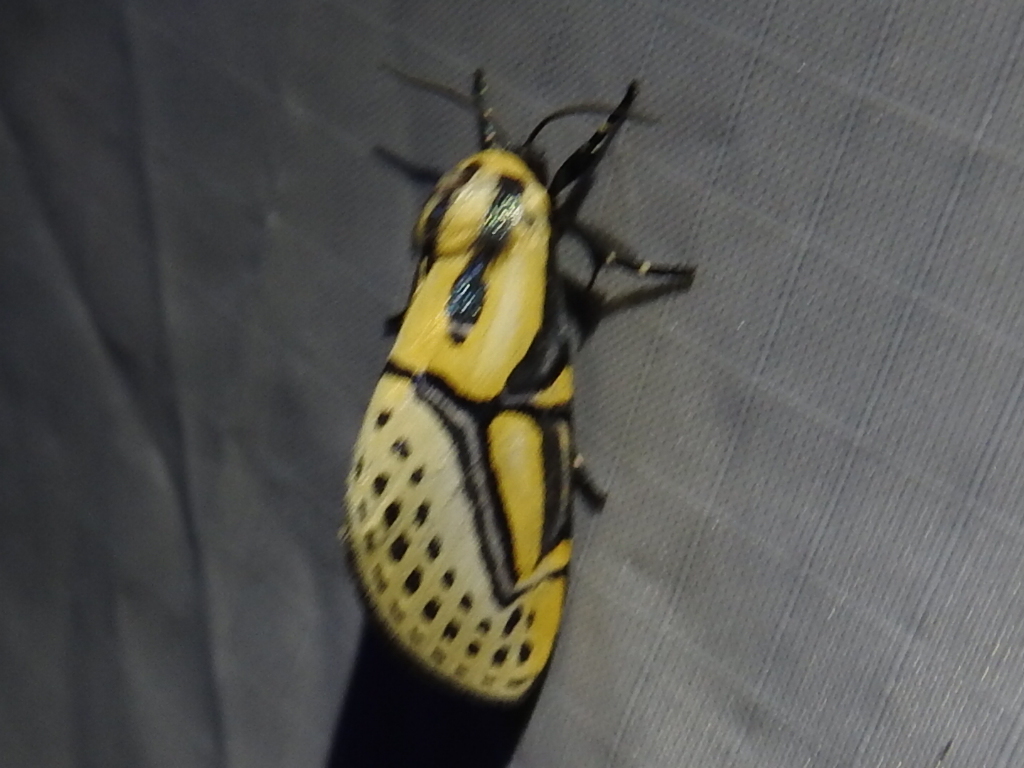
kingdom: Animalia
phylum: Arthropoda
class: Insecta
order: Lepidoptera
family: Erebidae
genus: Diphthera
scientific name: Diphthera festiva
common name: Hieroglyphic moth
